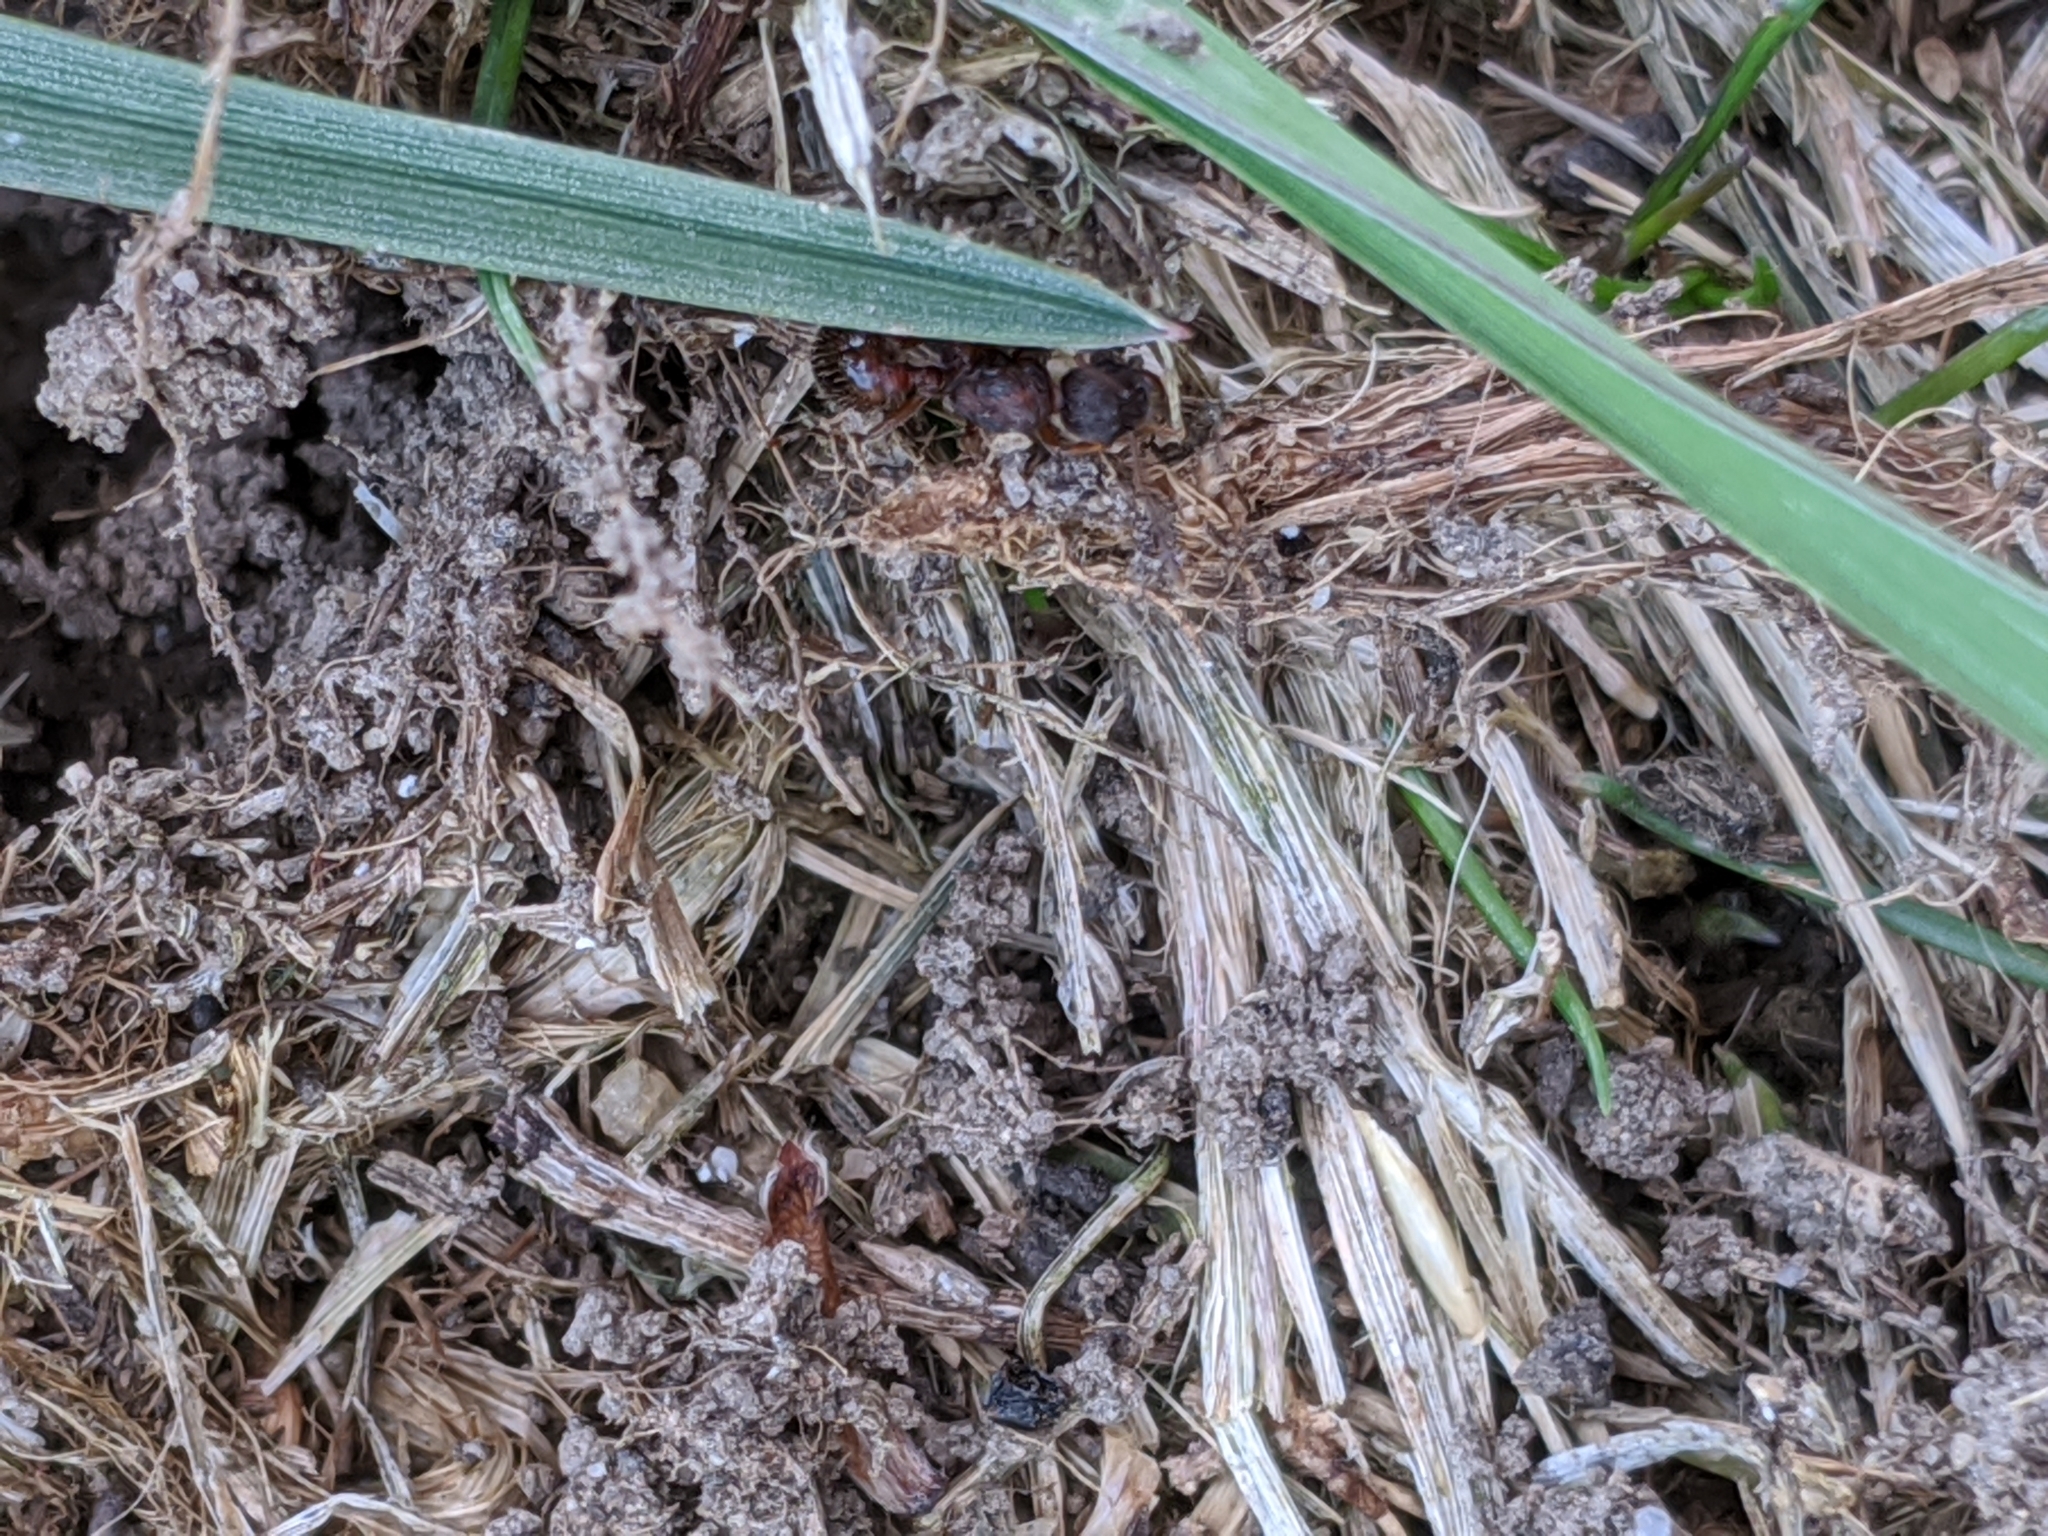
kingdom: Animalia
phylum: Arthropoda
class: Insecta
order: Hymenoptera
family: Formicidae
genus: Myrmica
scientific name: Myrmica
